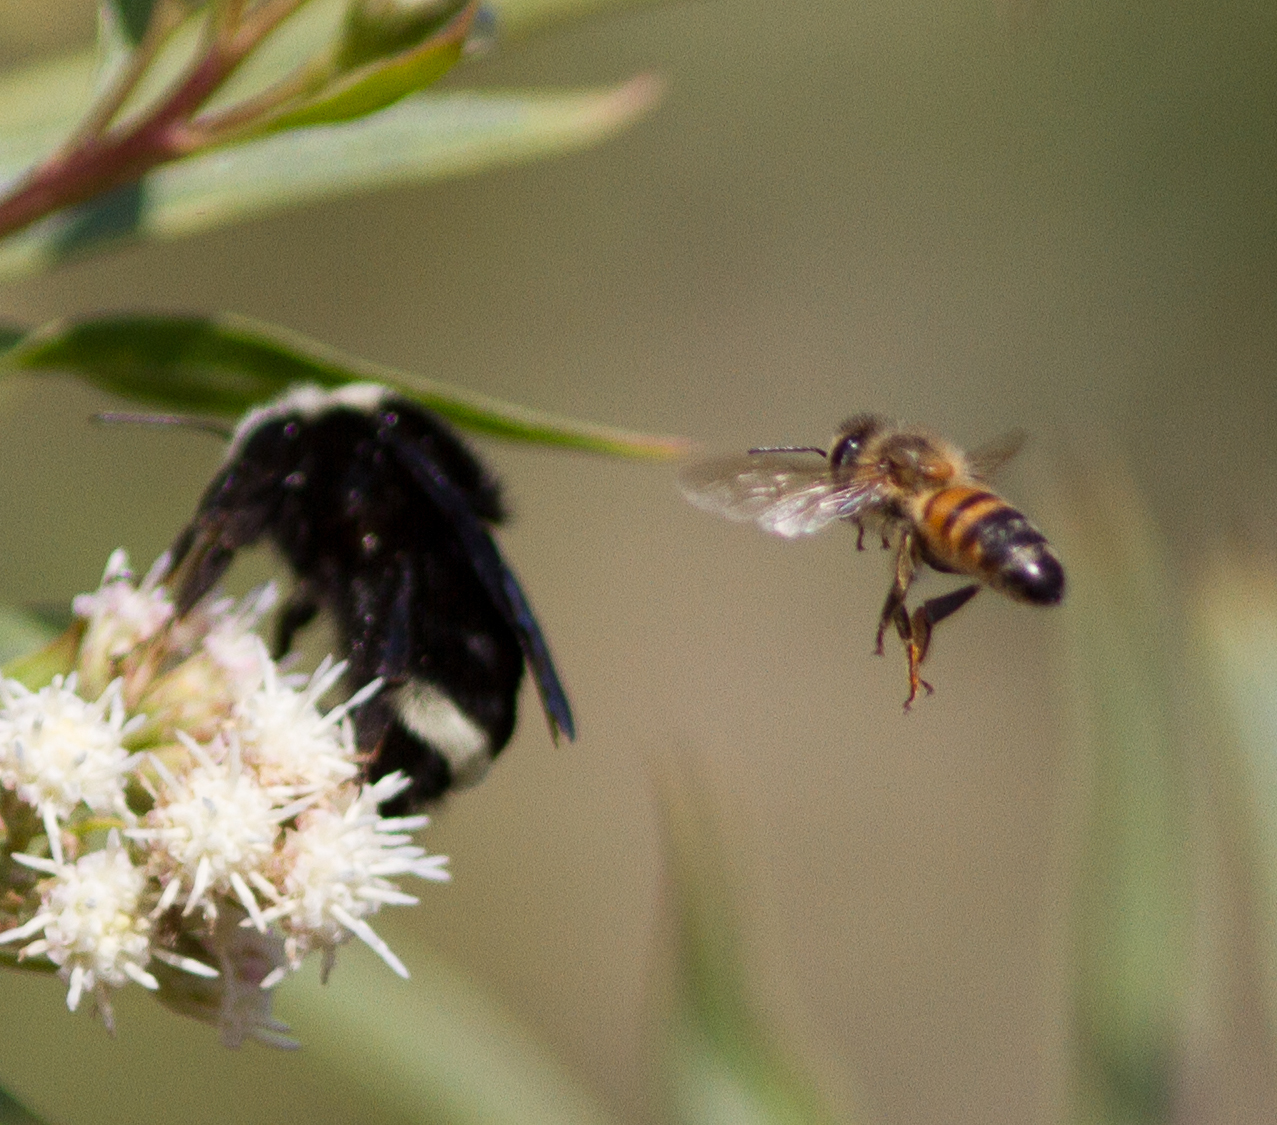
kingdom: Animalia
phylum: Arthropoda
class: Insecta
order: Hymenoptera
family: Apidae
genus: Apis
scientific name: Apis mellifera
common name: Honey bee
